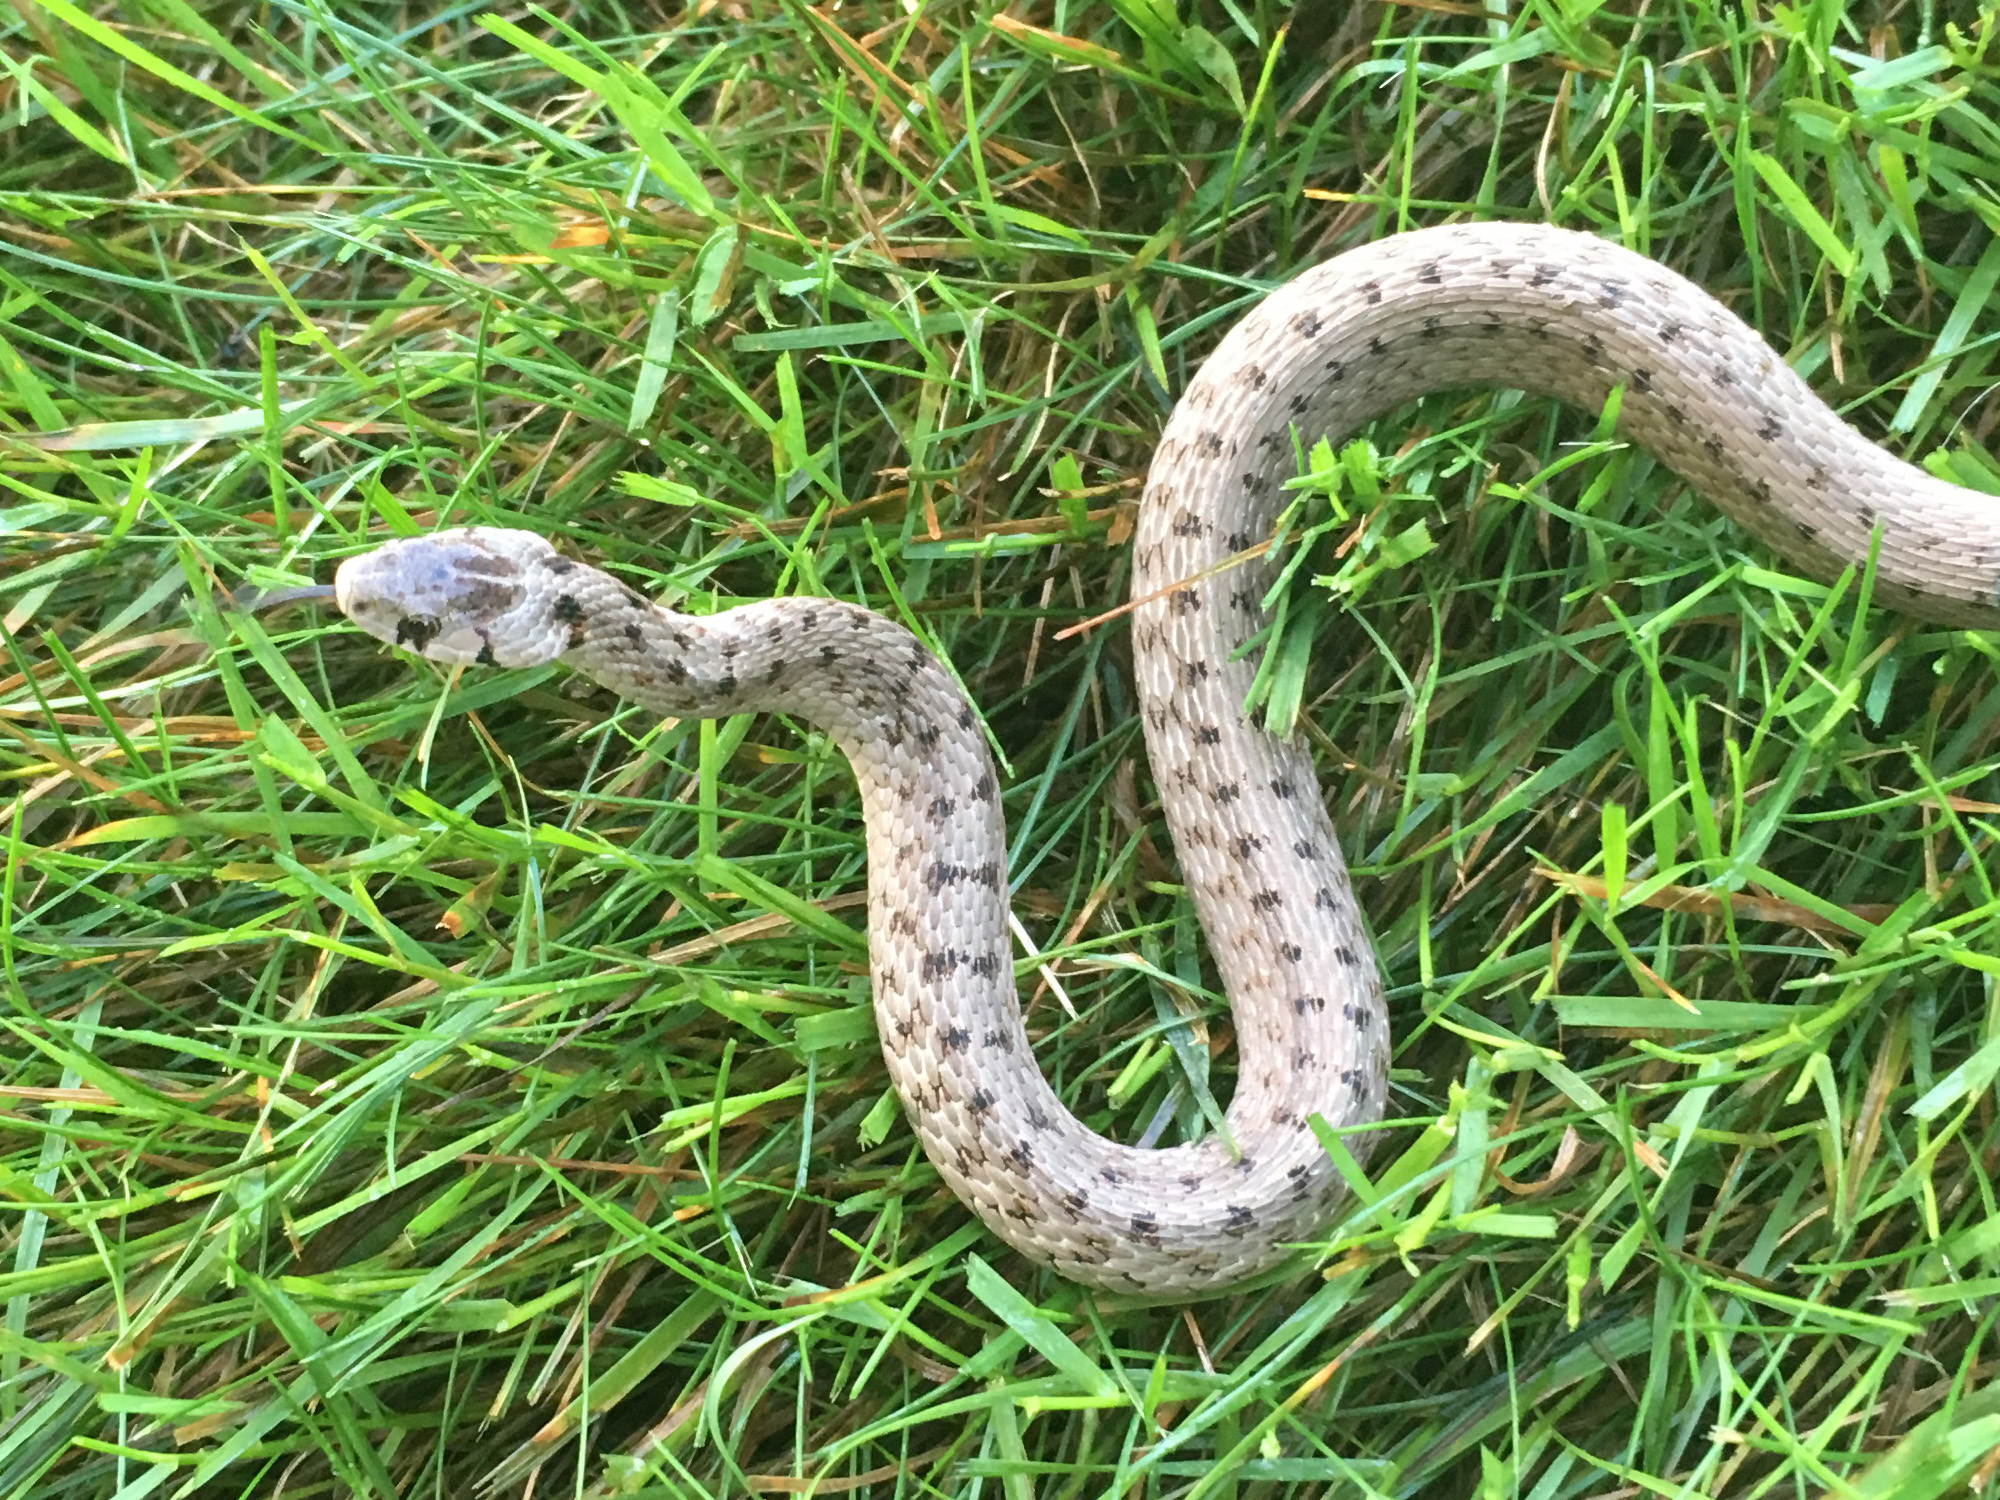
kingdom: Animalia
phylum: Chordata
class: Squamata
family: Colubridae
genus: Storeria
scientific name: Storeria dekayi
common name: (dekay’s) brown snake
